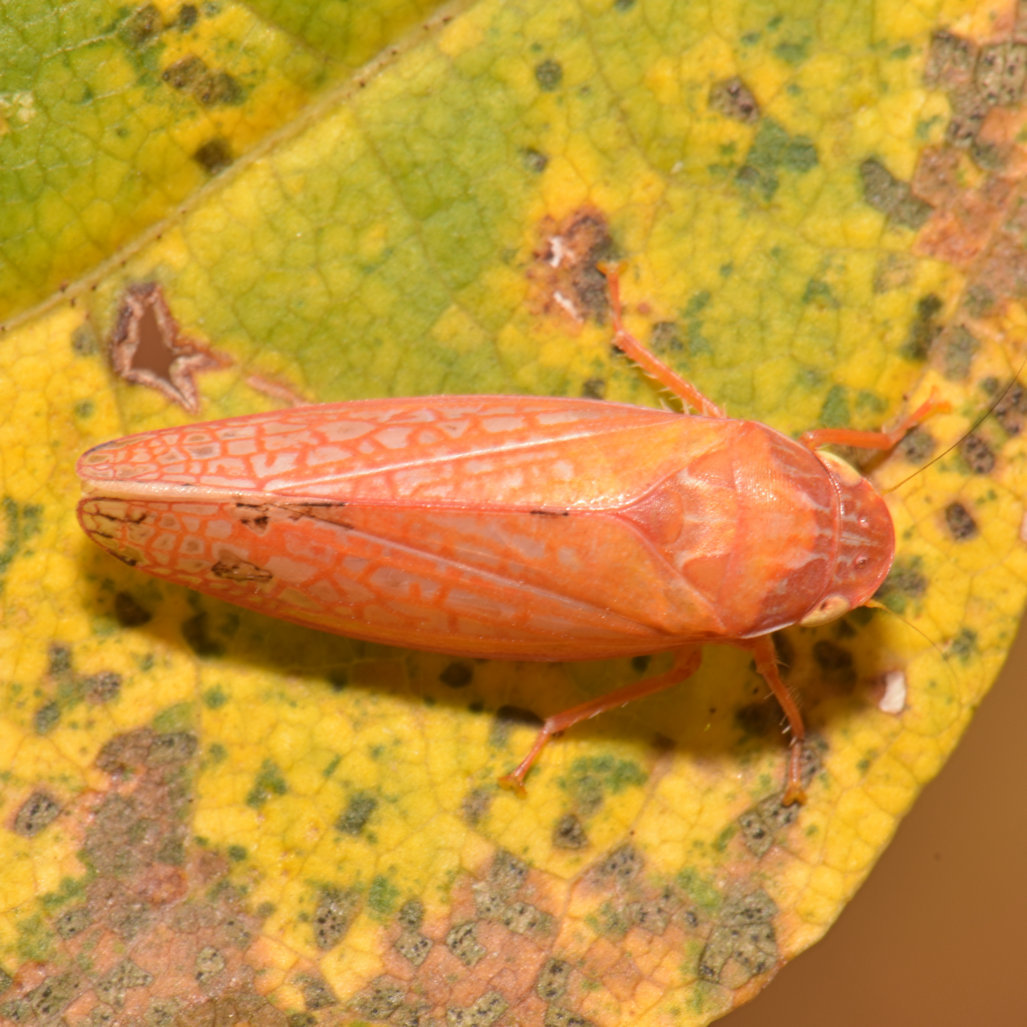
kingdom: Animalia
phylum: Arthropoda
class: Insecta
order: Hemiptera
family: Cicadellidae
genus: Gyponana
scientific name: Gyponana gladia
